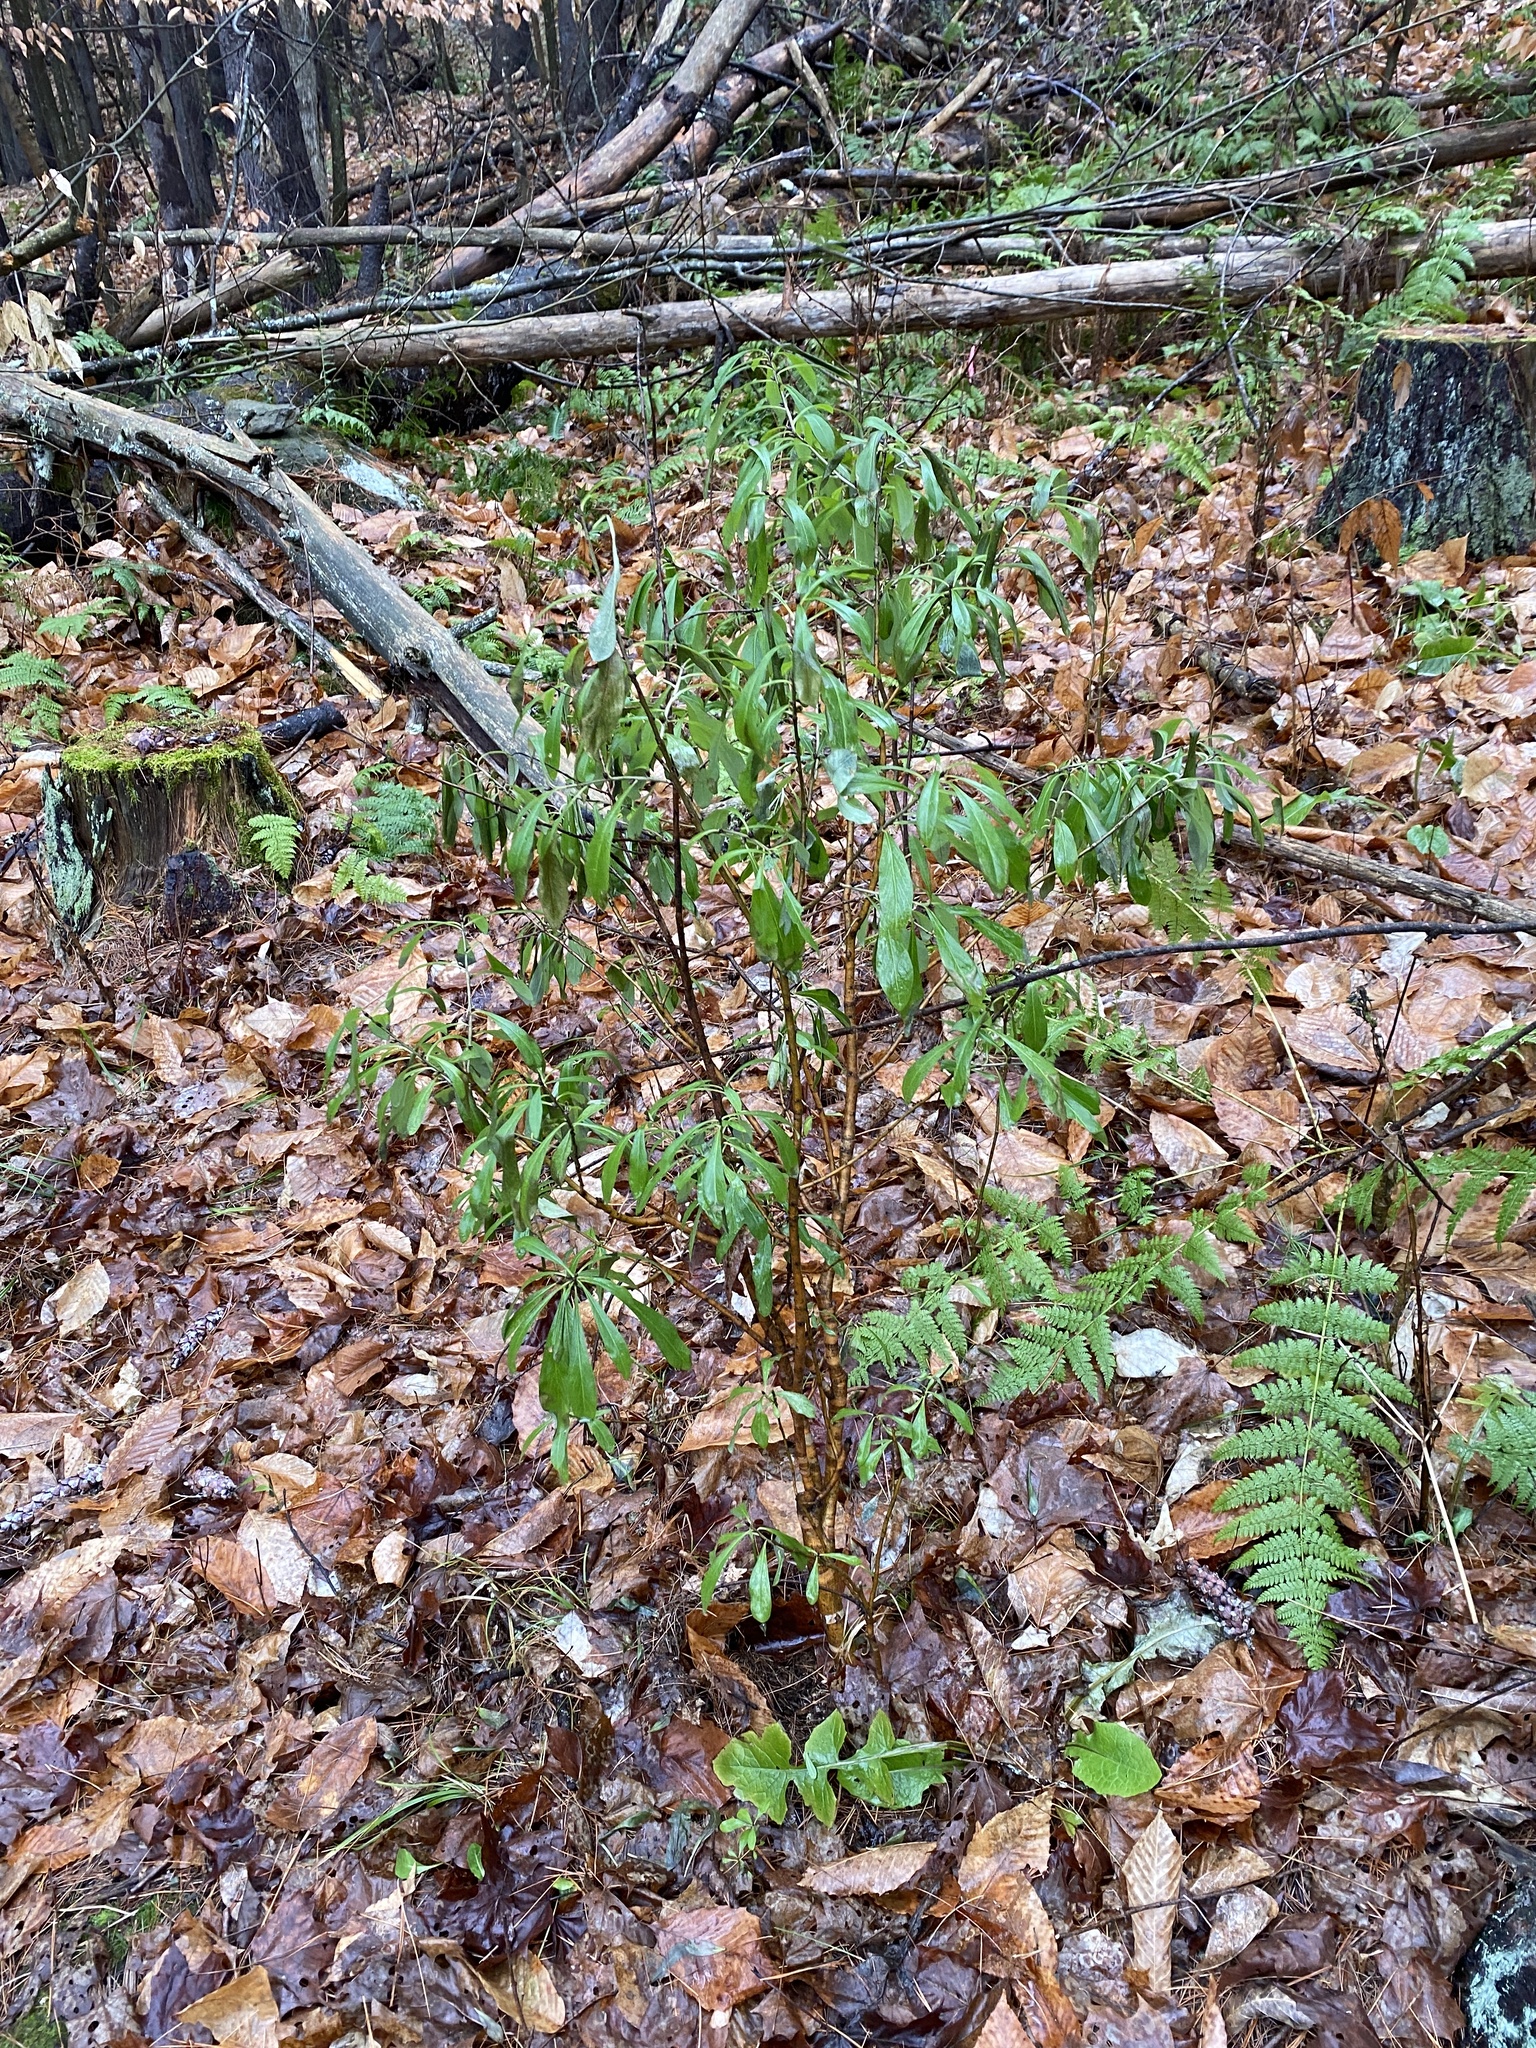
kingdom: Plantae
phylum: Tracheophyta
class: Magnoliopsida
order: Malvales
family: Thymelaeaceae
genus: Daphne
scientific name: Daphne mezereum
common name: Mezereon
